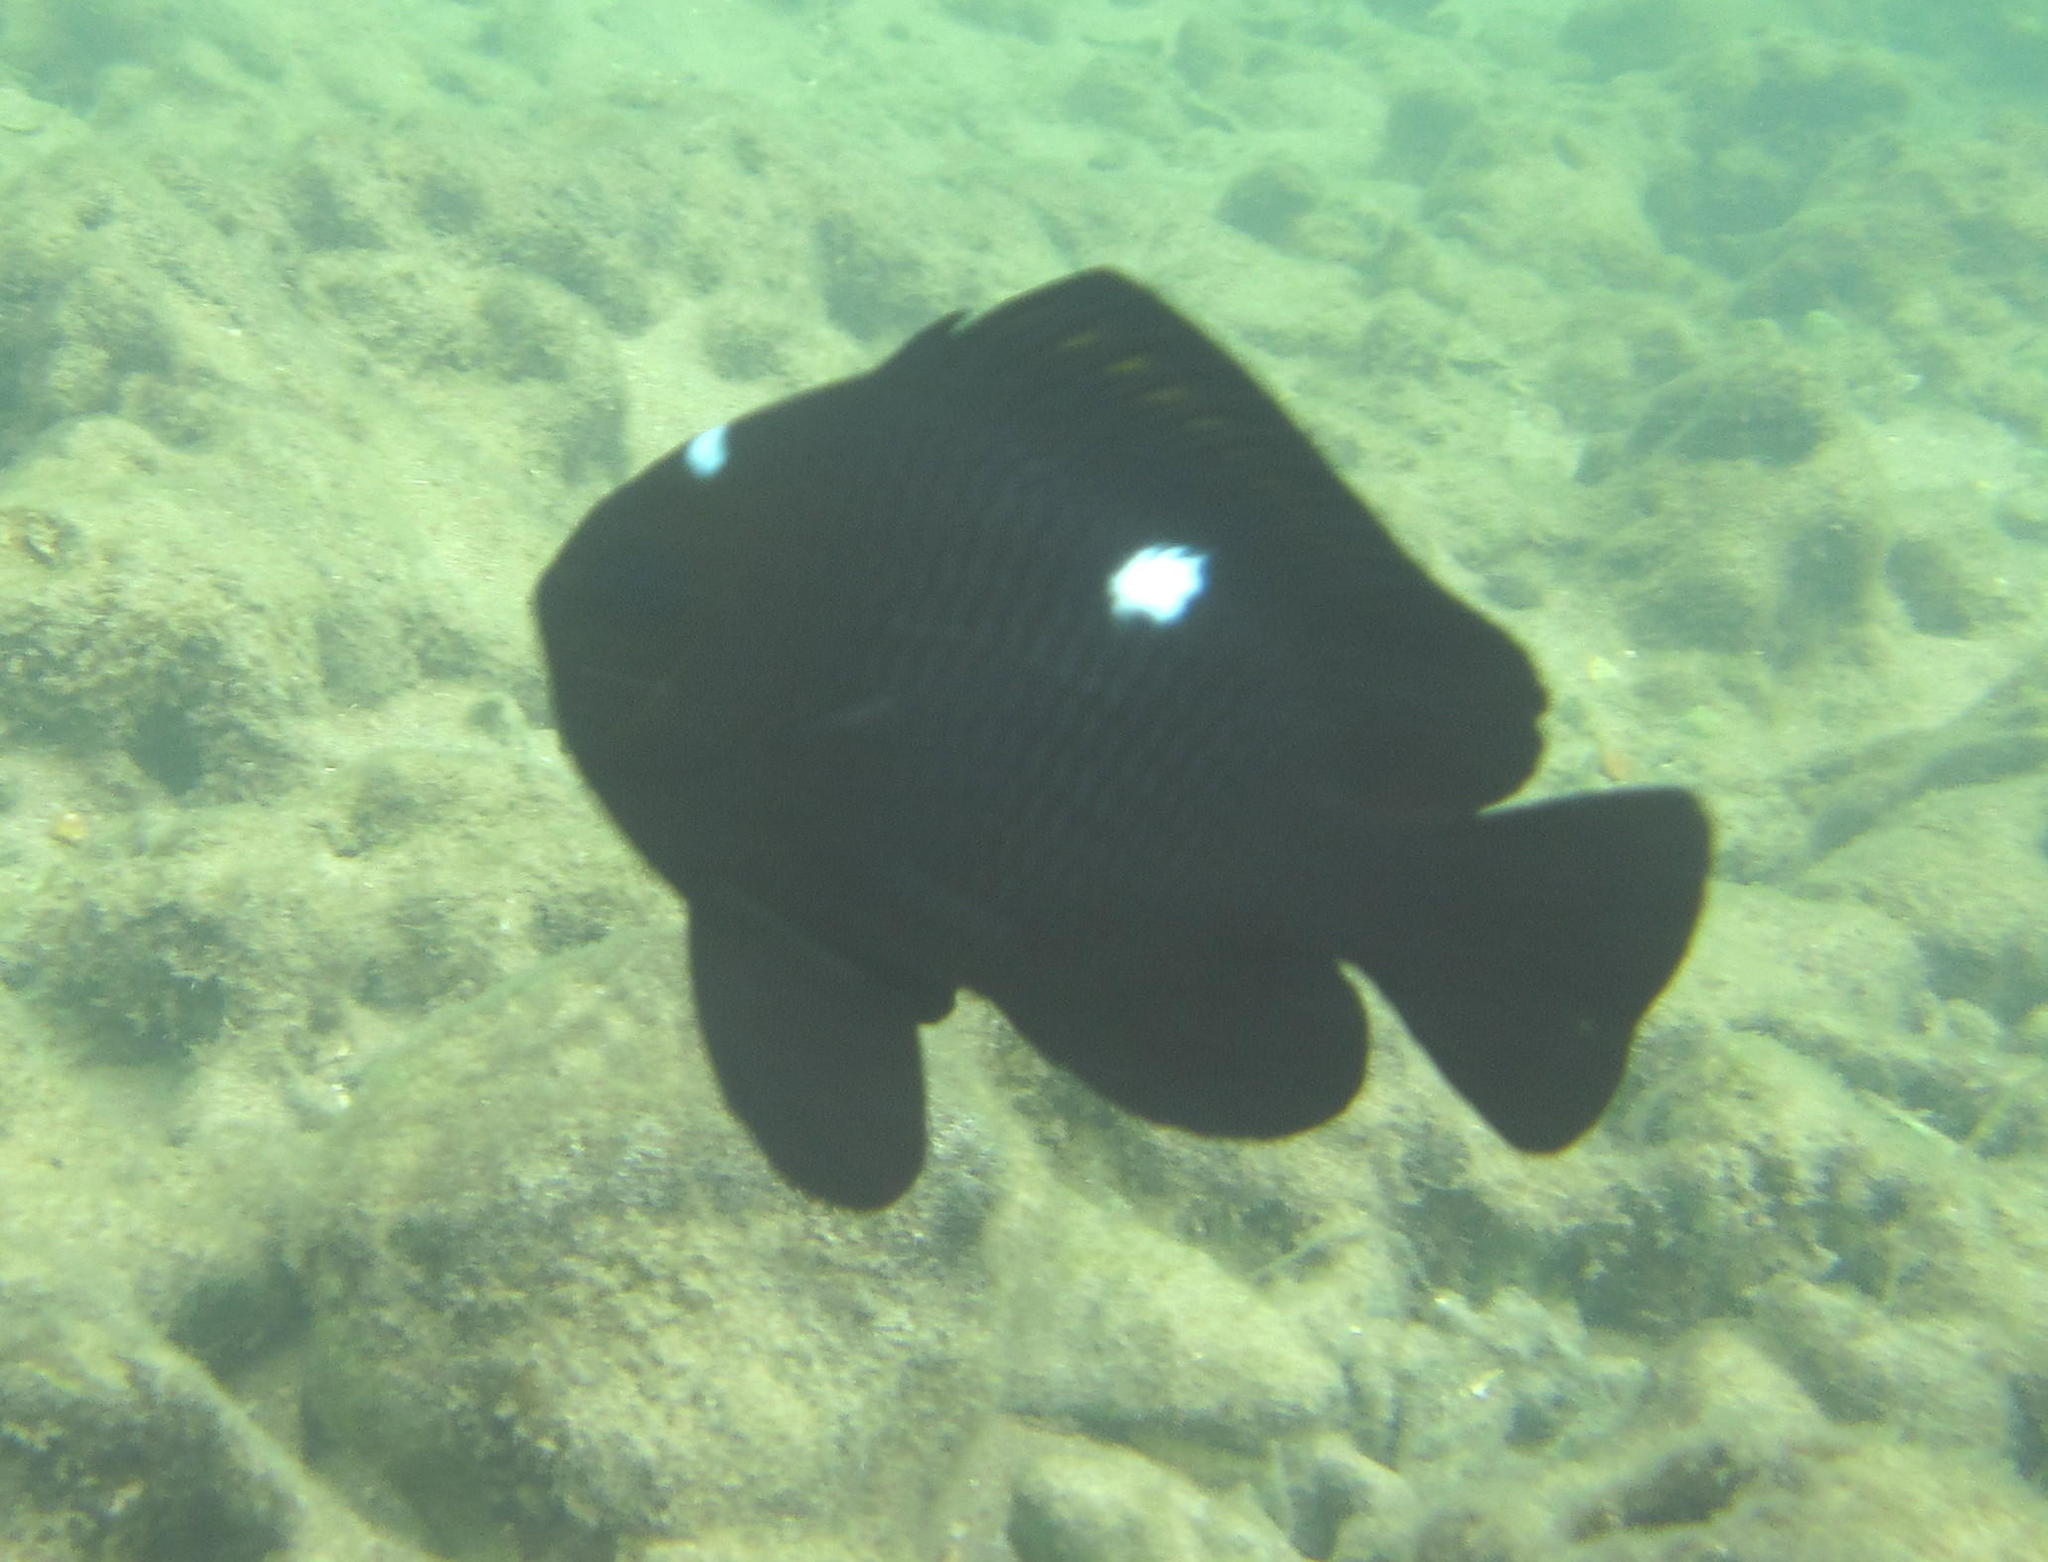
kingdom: Animalia
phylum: Chordata
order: Perciformes
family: Pomacentridae
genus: Dascyllus
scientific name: Dascyllus trimaculatus
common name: Threespot dascyllus
